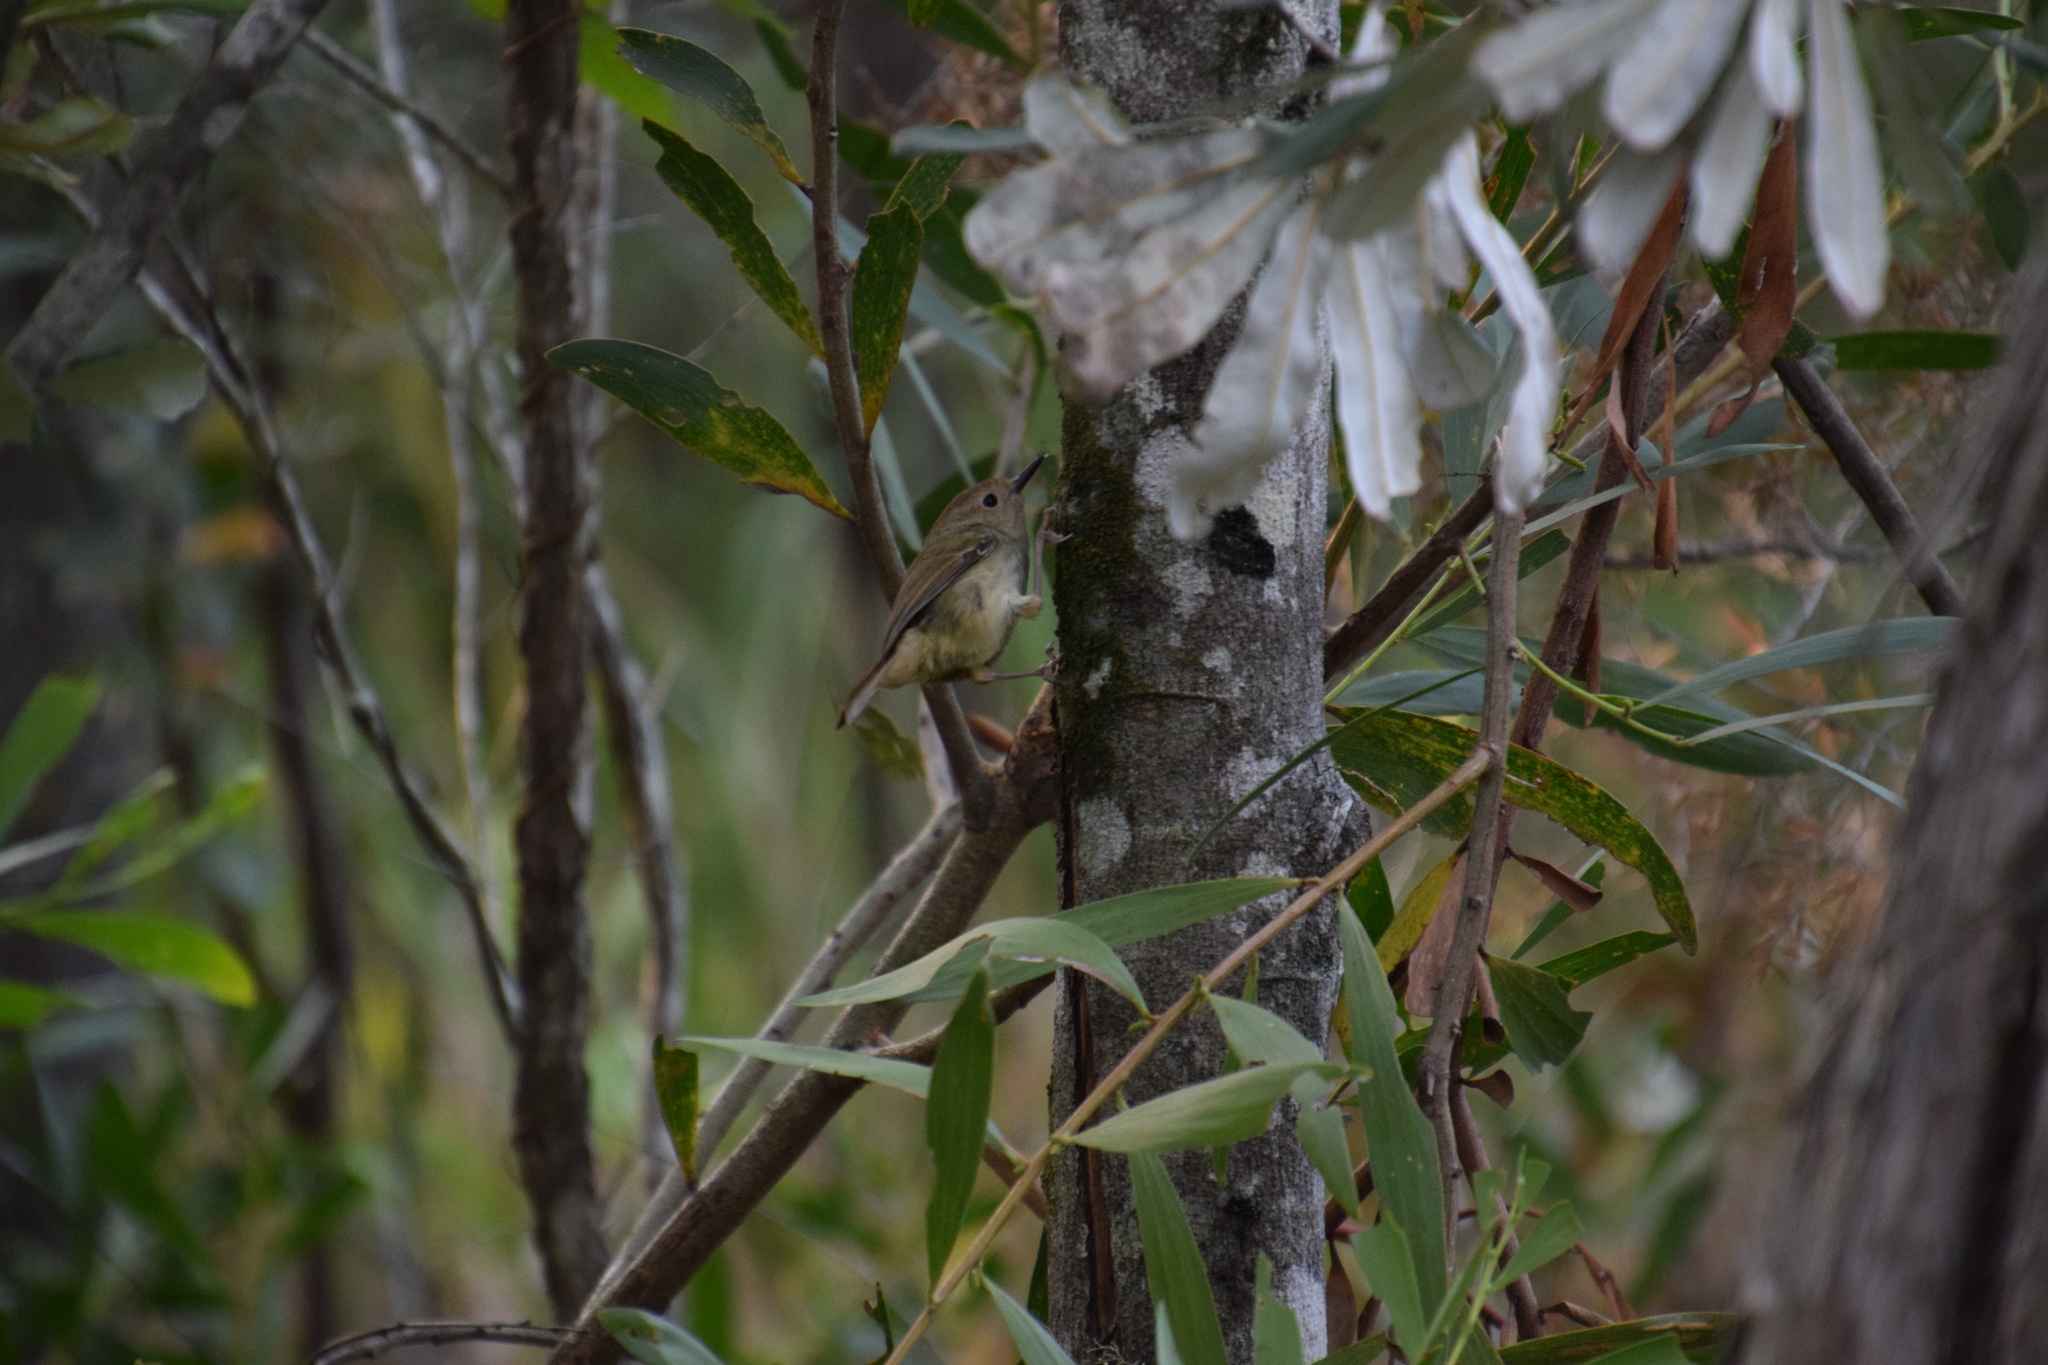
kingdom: Animalia
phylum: Chordata
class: Aves
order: Passeriformes
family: Acanthizidae
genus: Sericornis
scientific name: Sericornis magnirostra
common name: Large-billed scrubwren
